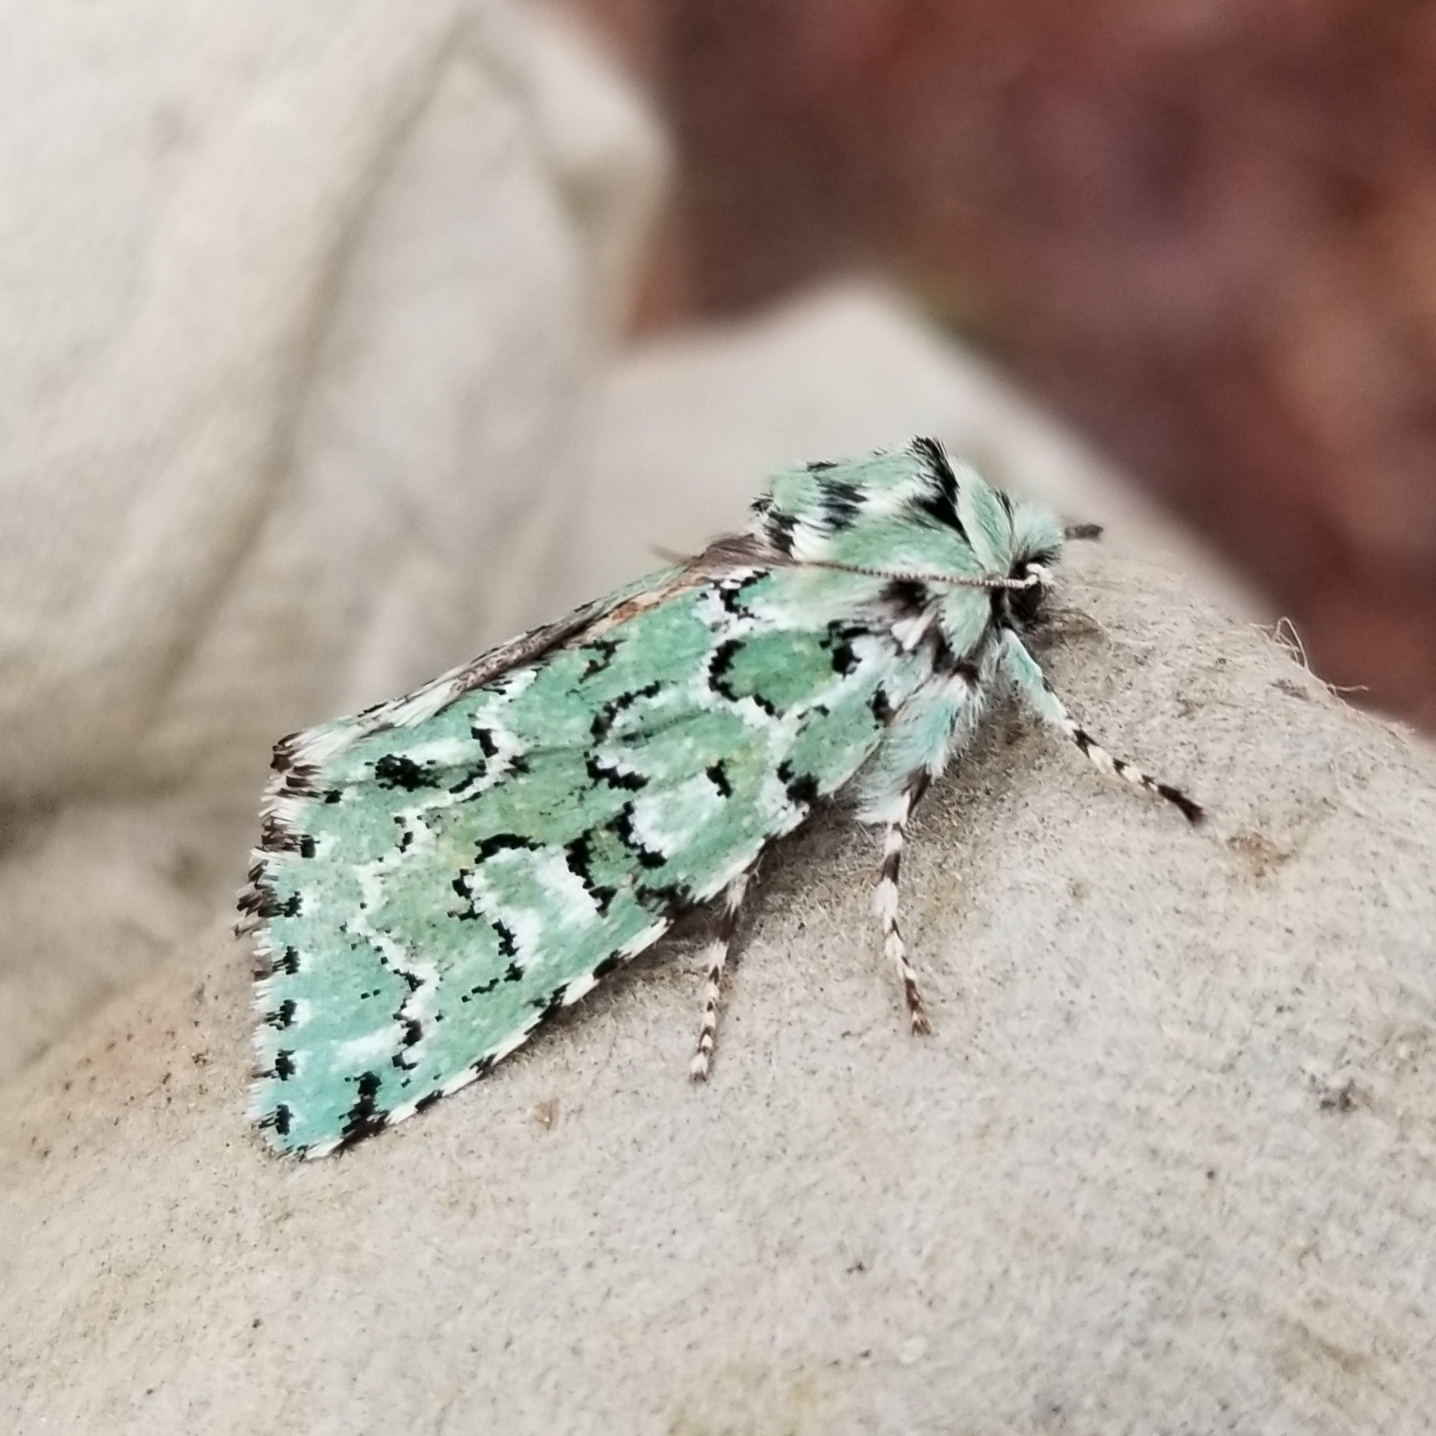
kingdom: Animalia
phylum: Arthropoda
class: Insecta
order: Lepidoptera
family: Noctuidae
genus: Feralia
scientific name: Feralia major
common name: Major sallow
